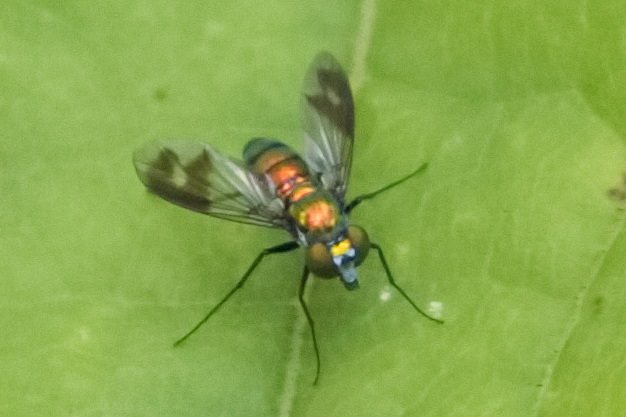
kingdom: Animalia
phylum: Arthropoda
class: Insecta
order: Diptera
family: Dolichopodidae
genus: Condylostylus
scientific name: Condylostylus patibulatus
